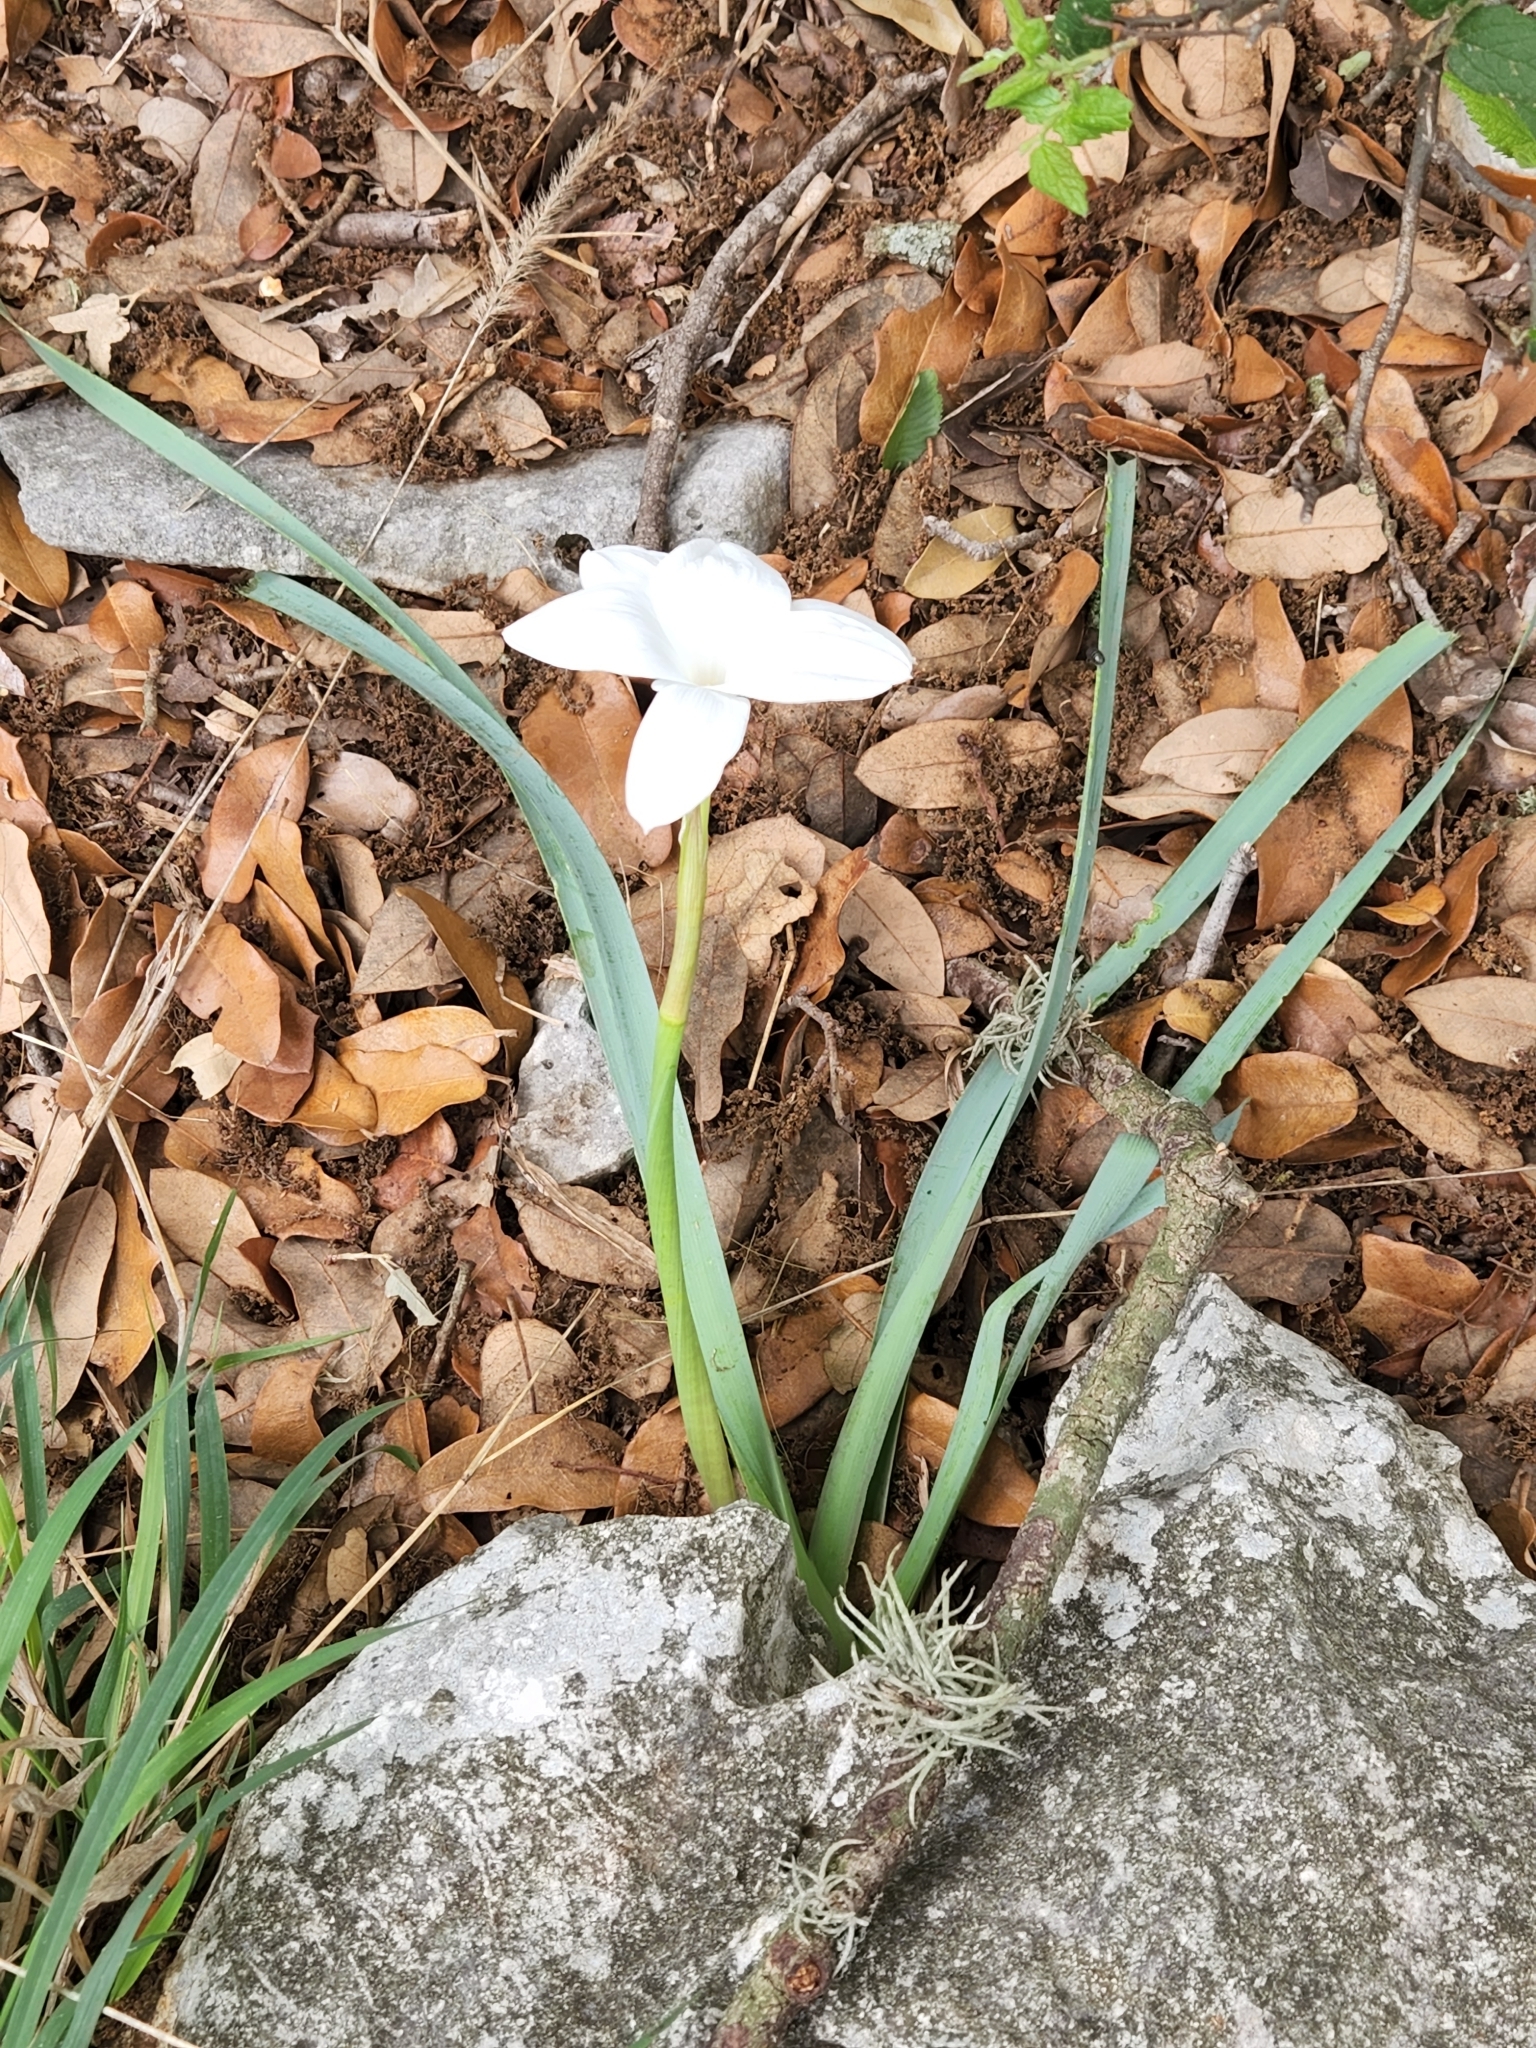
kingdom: Plantae
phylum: Tracheophyta
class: Liliopsida
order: Asparagales
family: Amaryllidaceae
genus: Zephyranthes
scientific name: Zephyranthes drummondii
